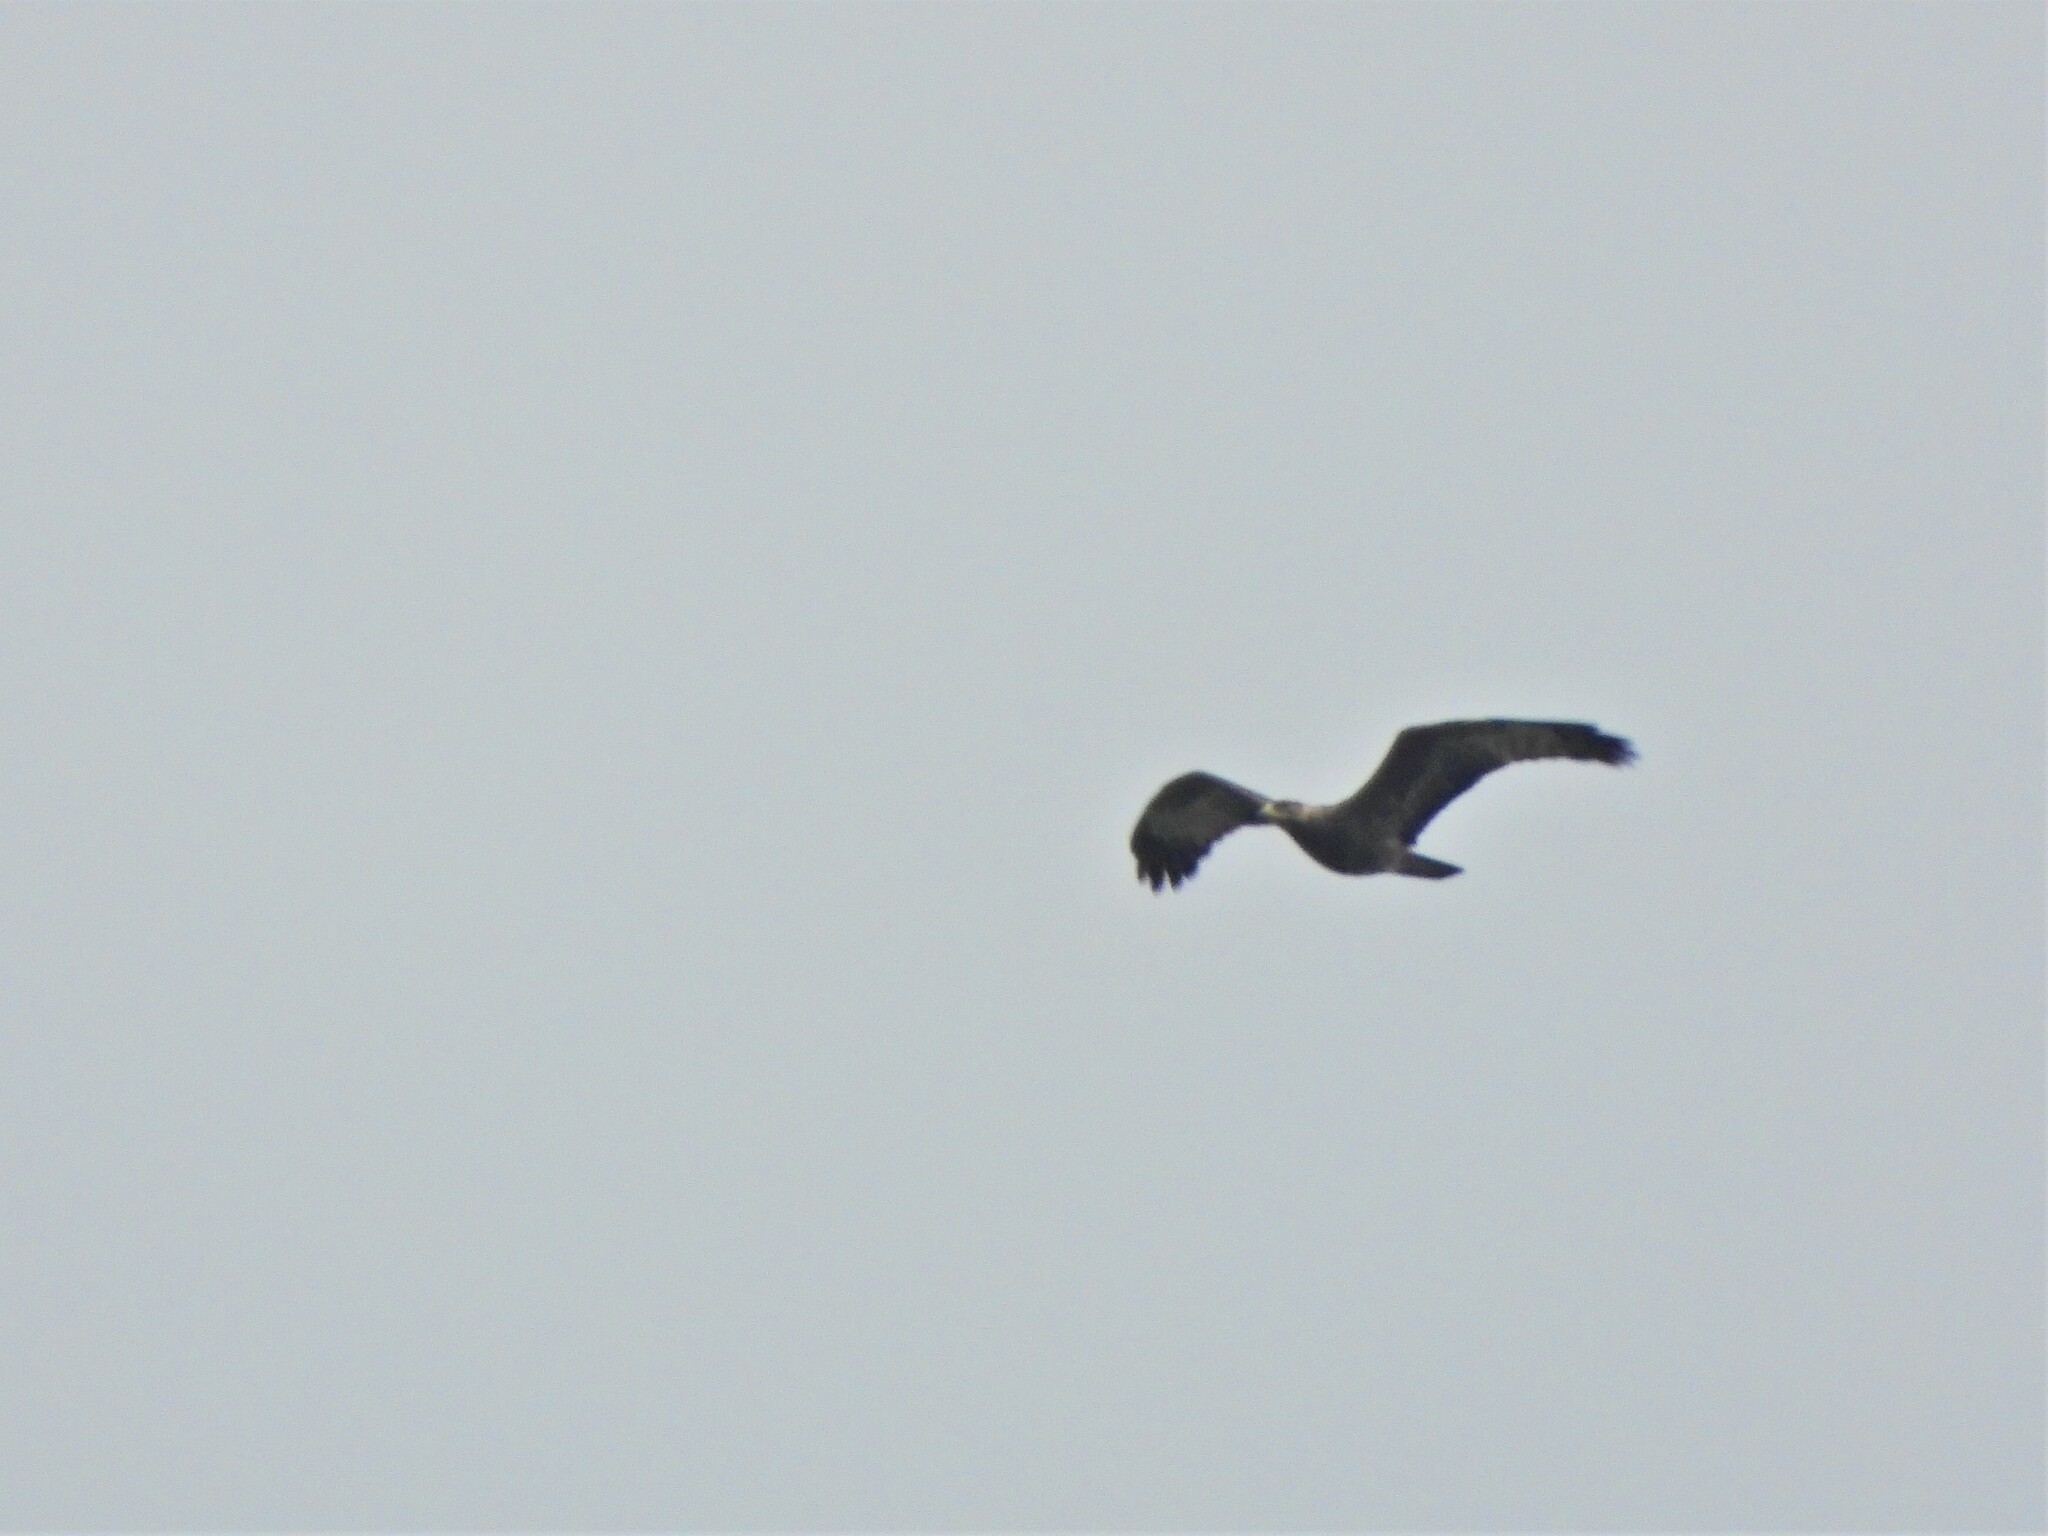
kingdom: Animalia
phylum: Chordata
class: Aves
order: Accipitriformes
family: Accipitridae
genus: Pernis
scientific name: Pernis apivorus
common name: European honey buzzard
